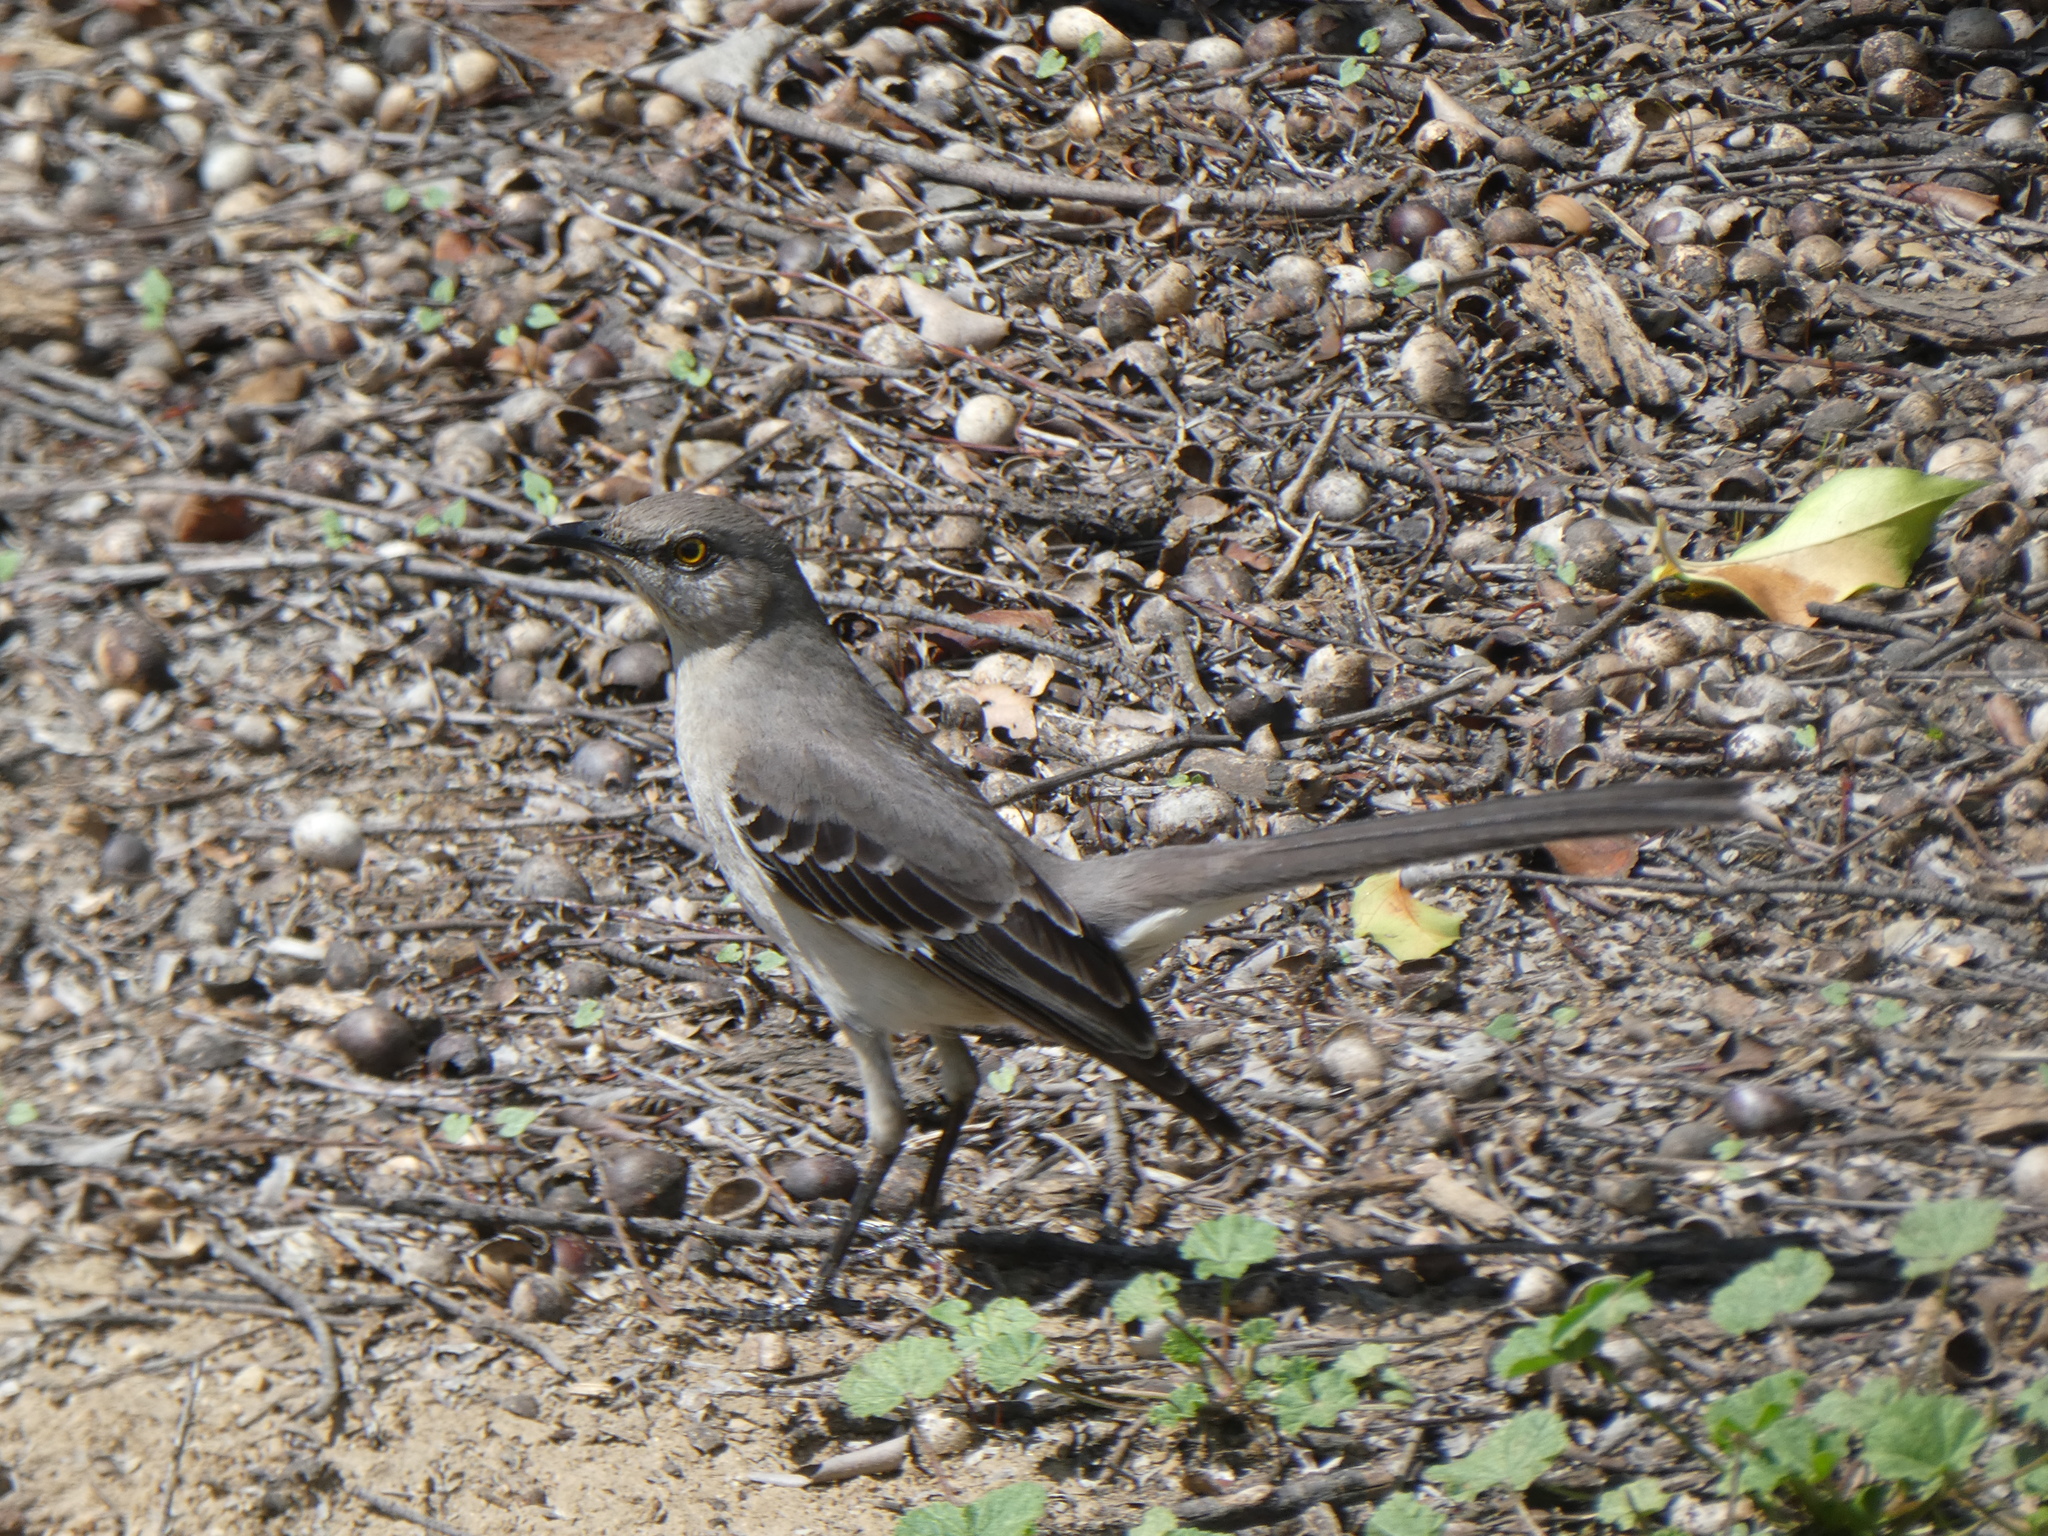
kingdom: Animalia
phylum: Chordata
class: Aves
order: Passeriformes
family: Mimidae
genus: Mimus
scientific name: Mimus polyglottos
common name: Northern mockingbird
